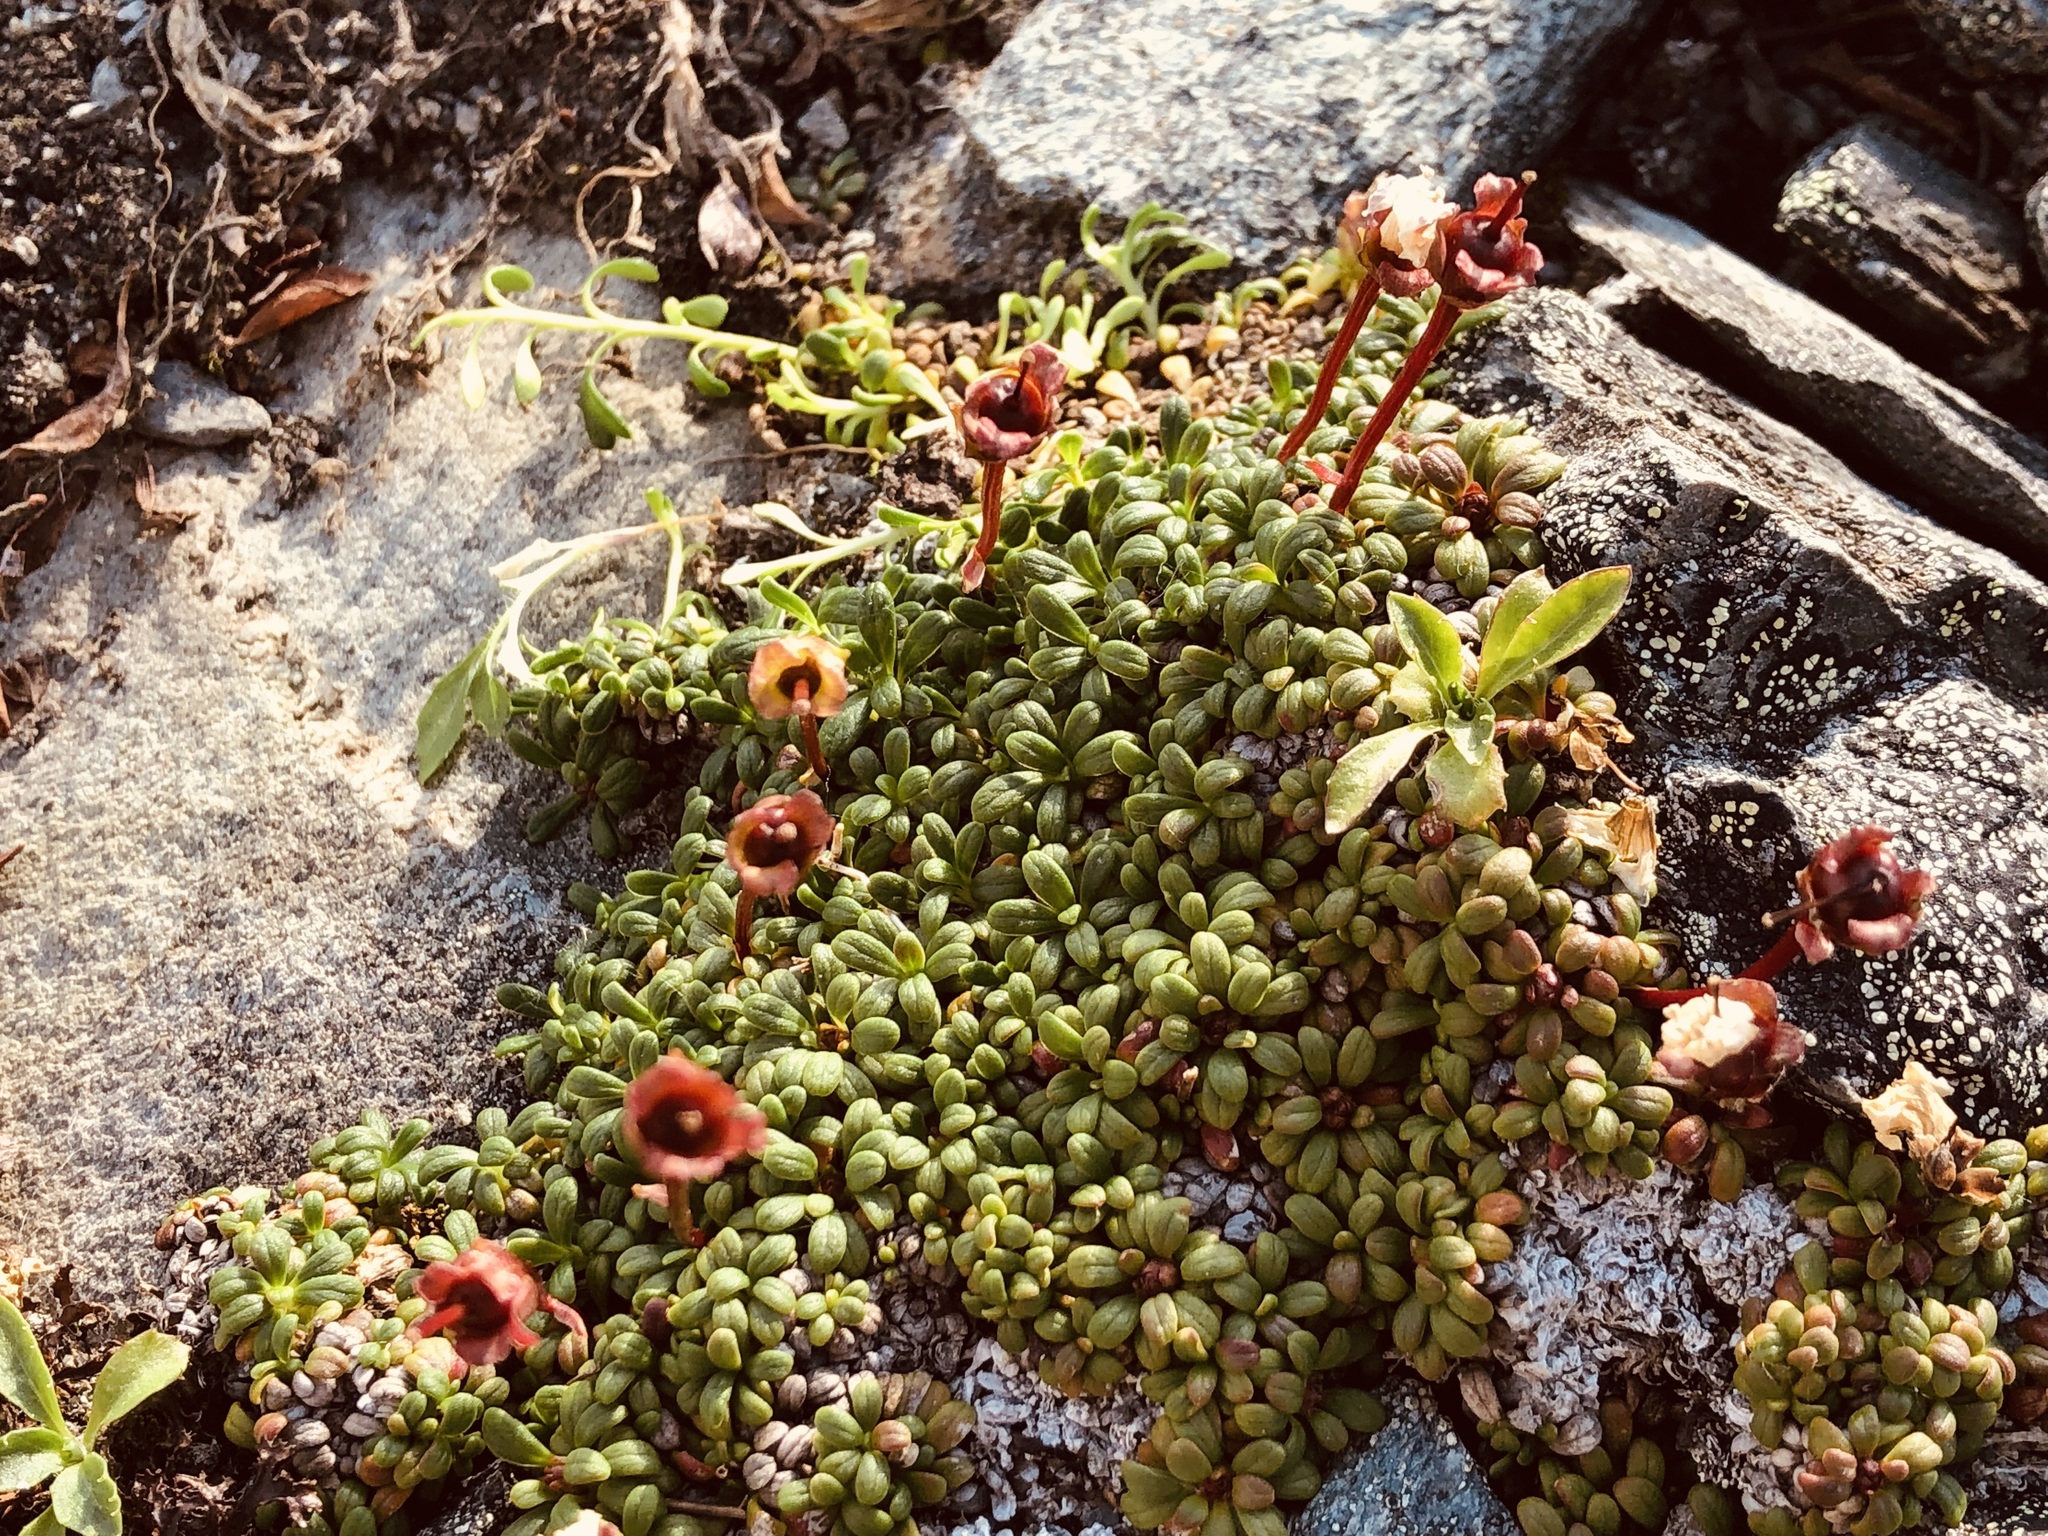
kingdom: Plantae
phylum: Tracheophyta
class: Magnoliopsida
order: Ericales
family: Diapensiaceae
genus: Diapensia
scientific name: Diapensia obovata
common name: Alaska diapensia
